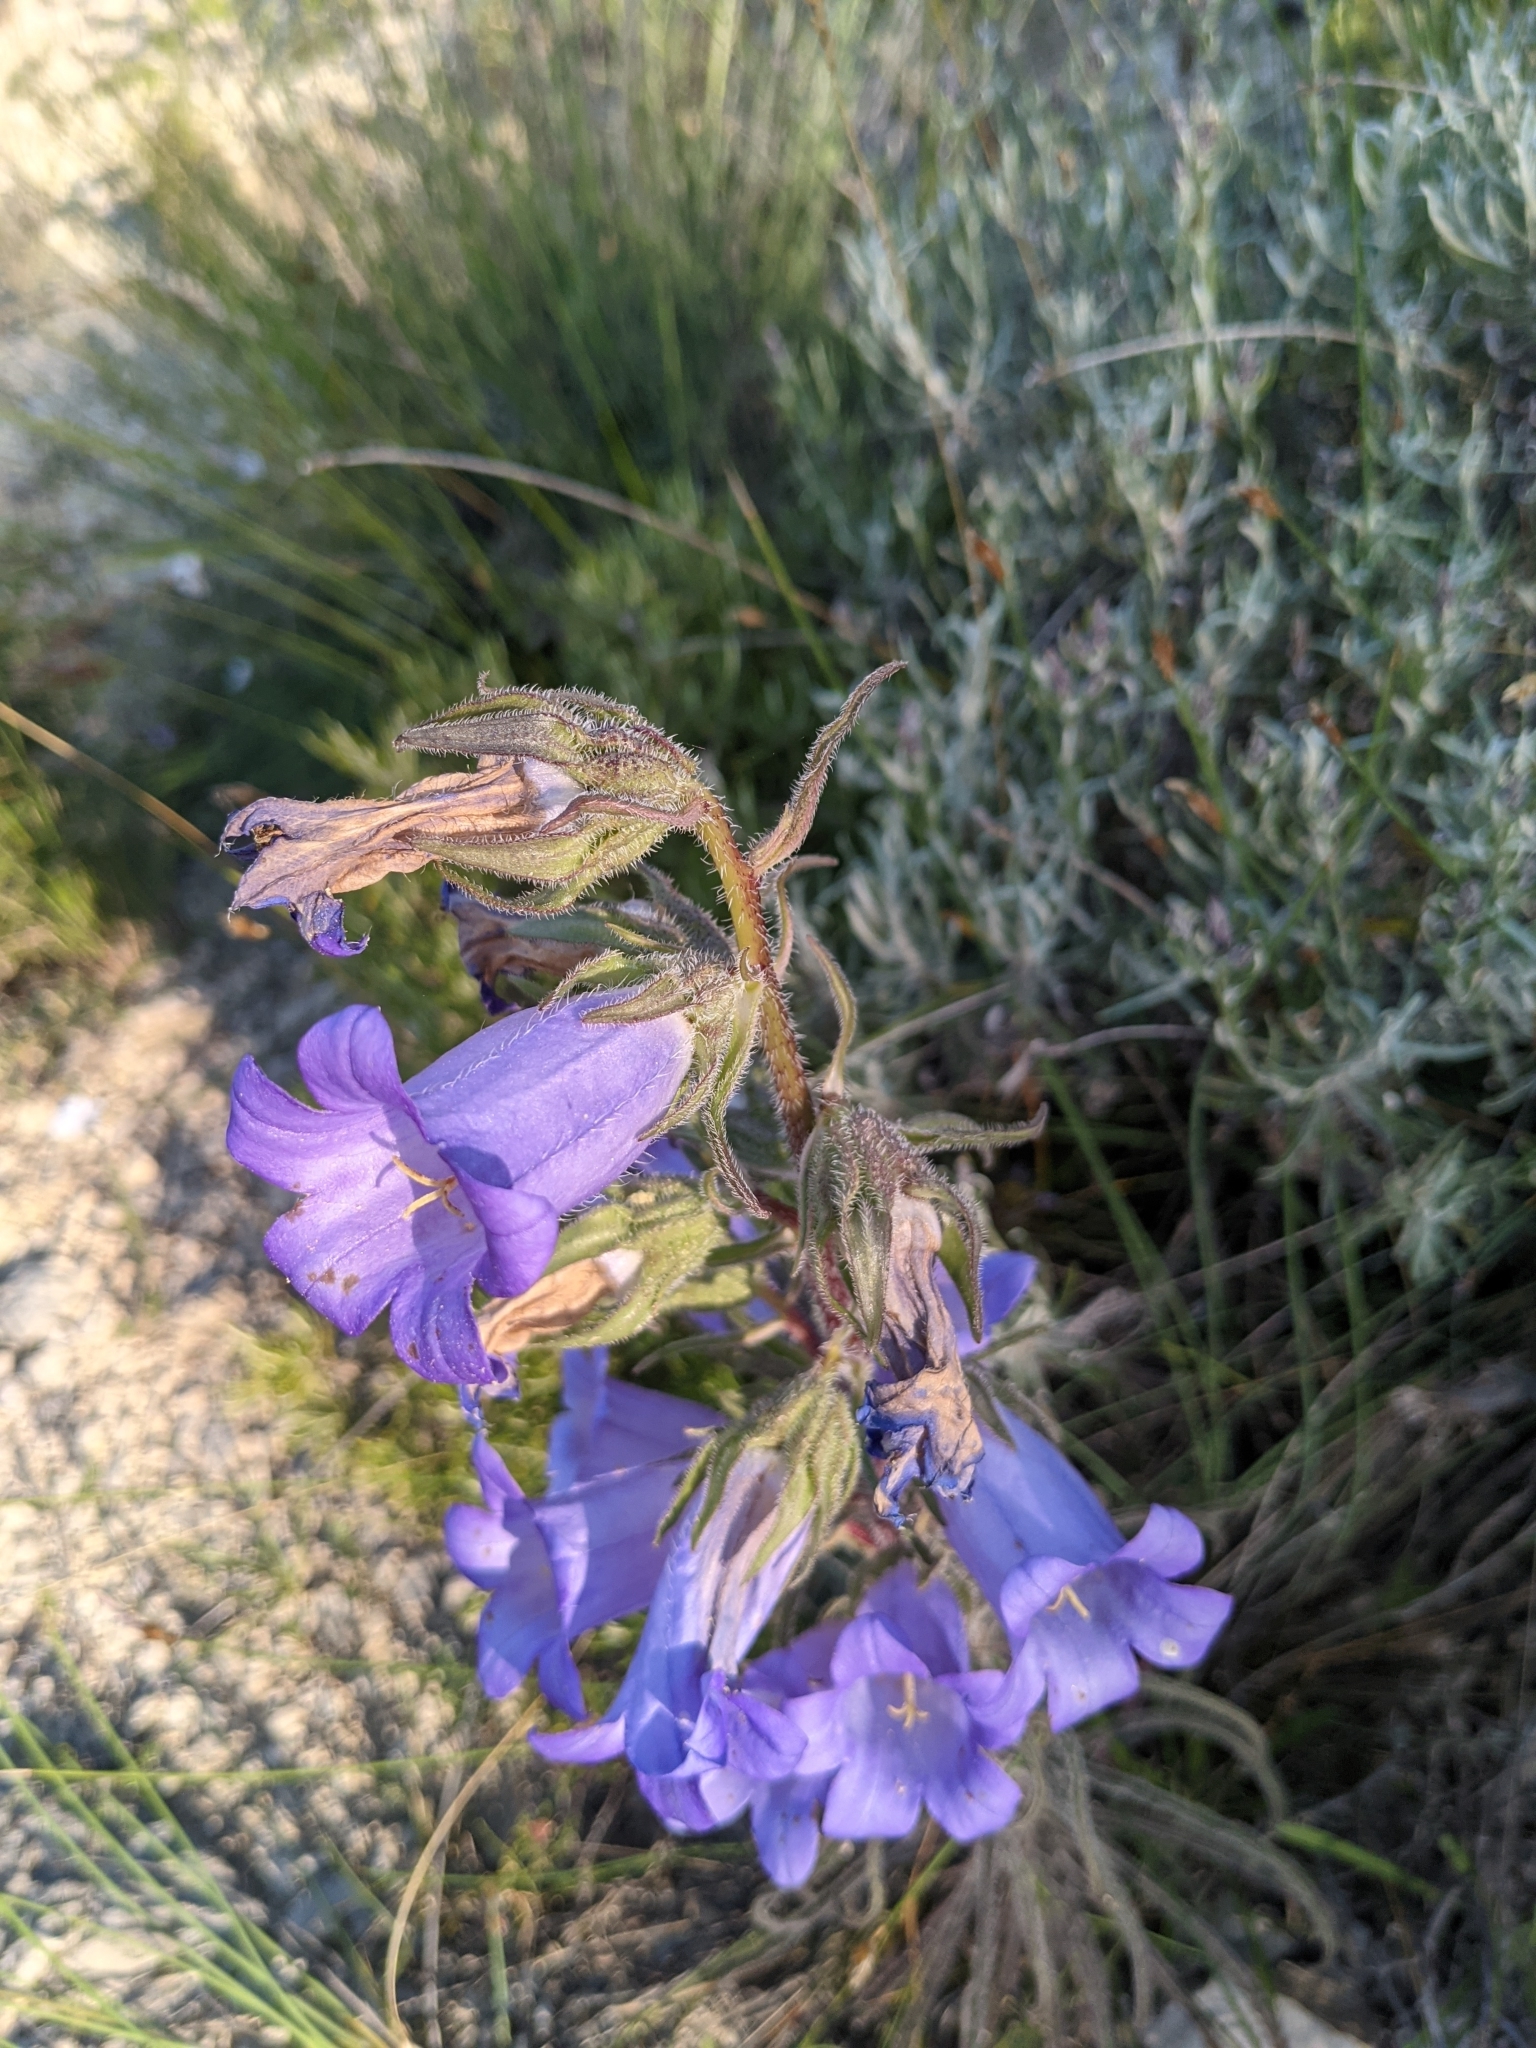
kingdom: Plantae
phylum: Tracheophyta
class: Magnoliopsida
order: Asterales
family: Campanulaceae
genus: Campanula
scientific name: Campanula speciosa
